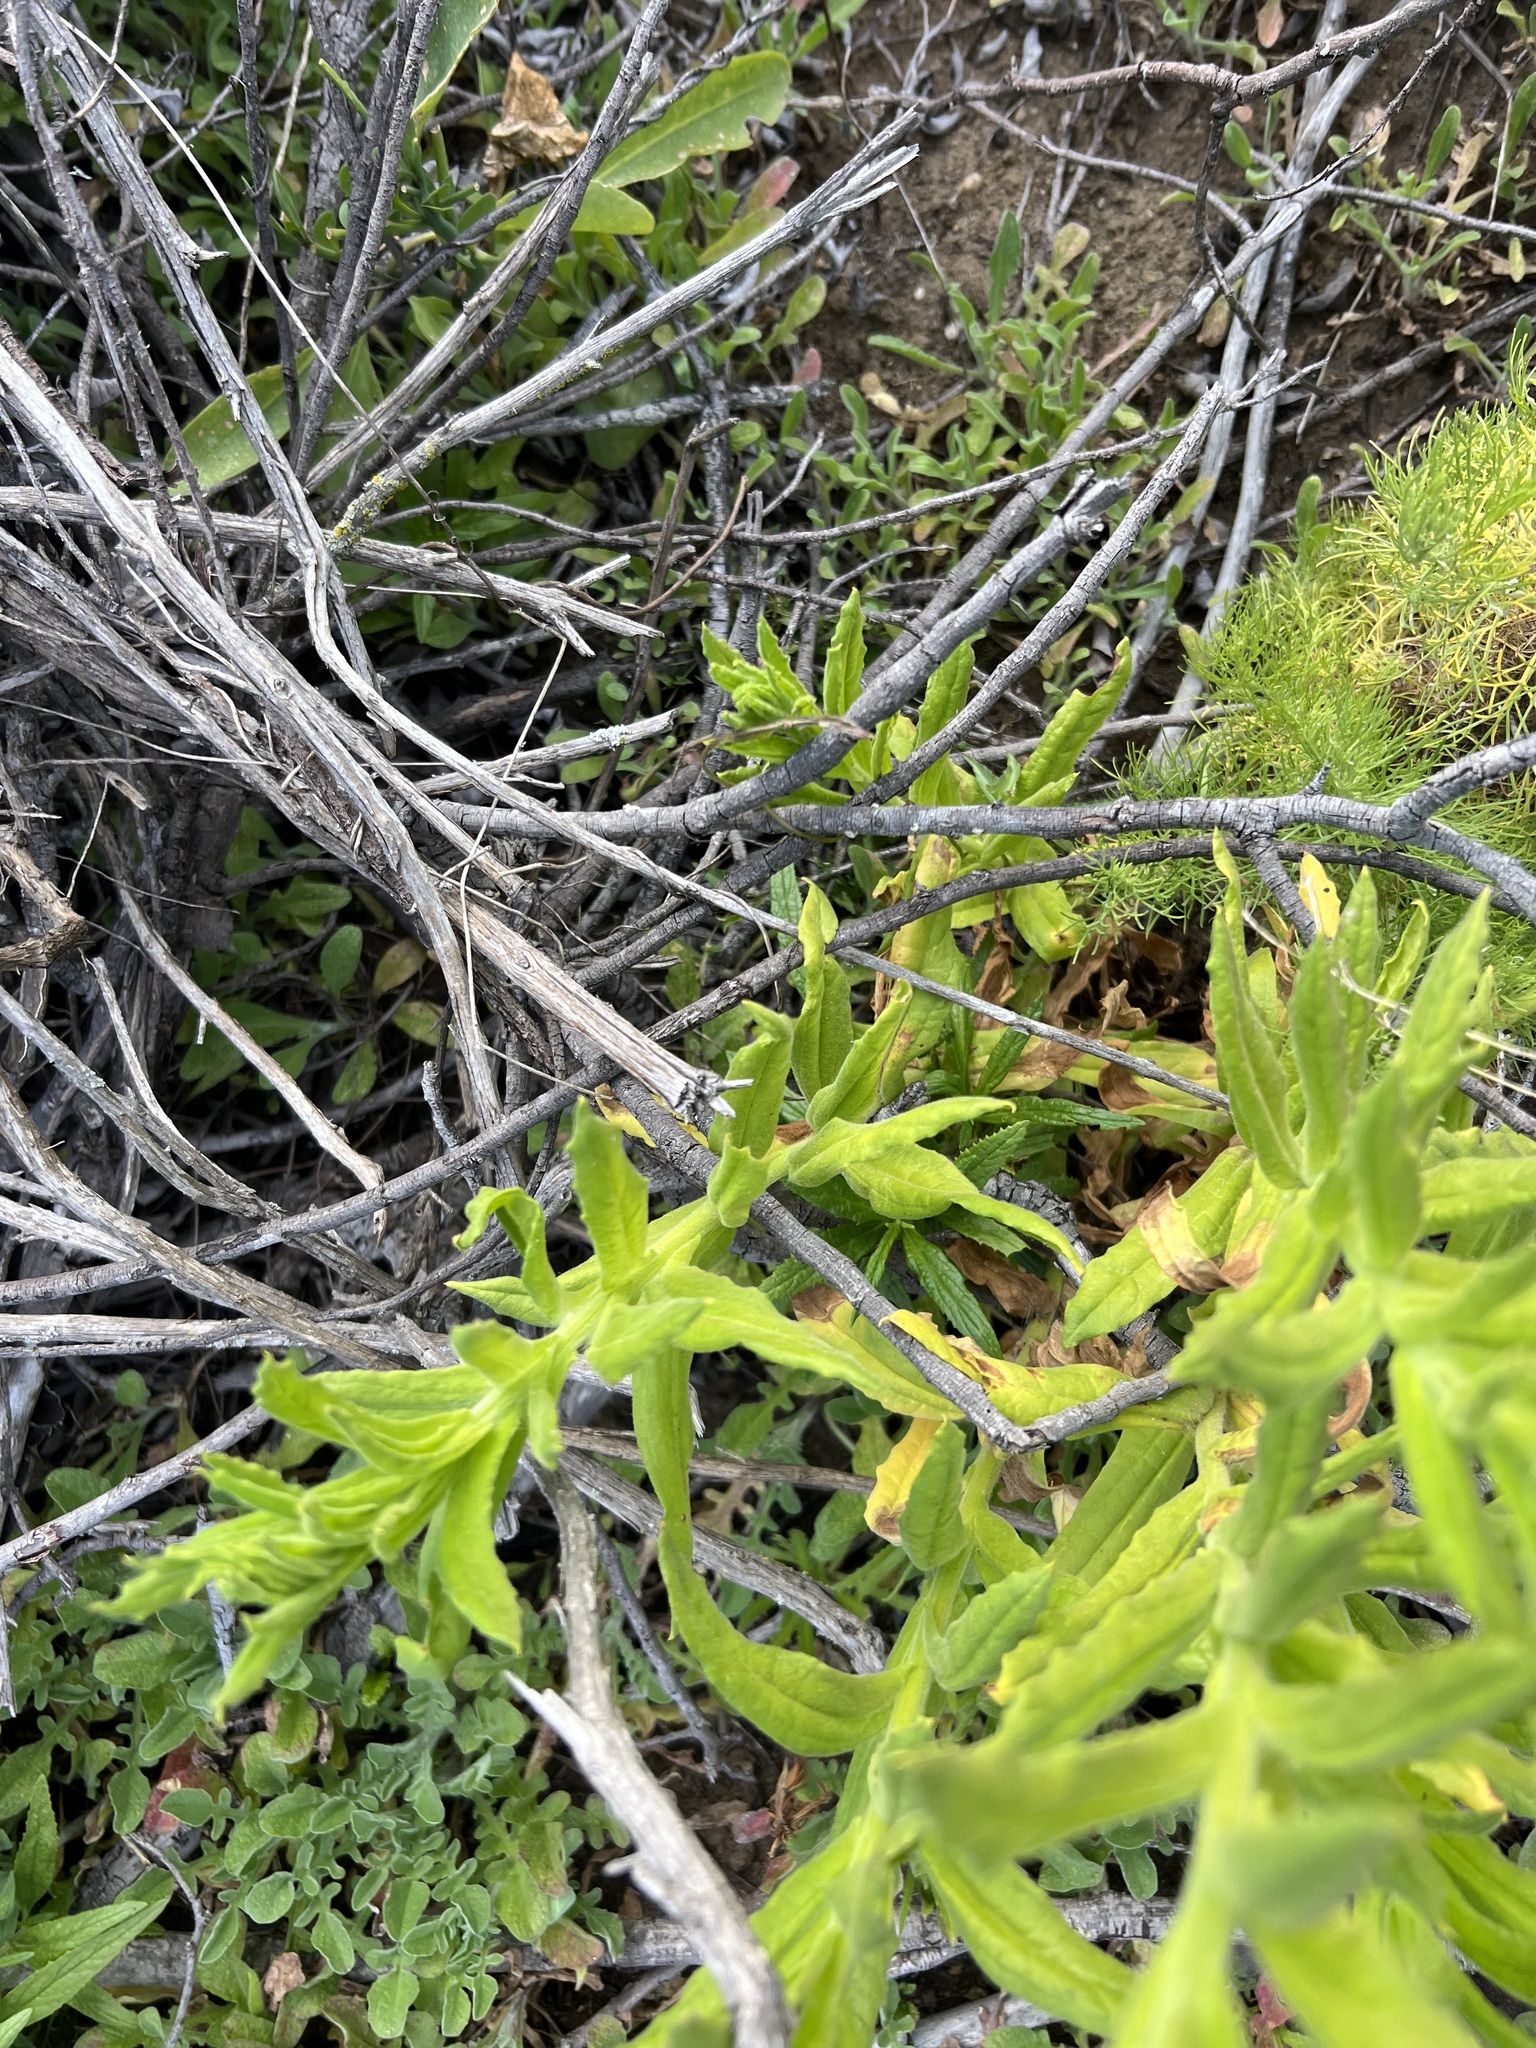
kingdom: Plantae
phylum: Tracheophyta
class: Magnoliopsida
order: Asterales
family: Asteraceae
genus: Pseudognaphalium
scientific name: Pseudognaphalium californicum
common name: California rabbit-tobacco
